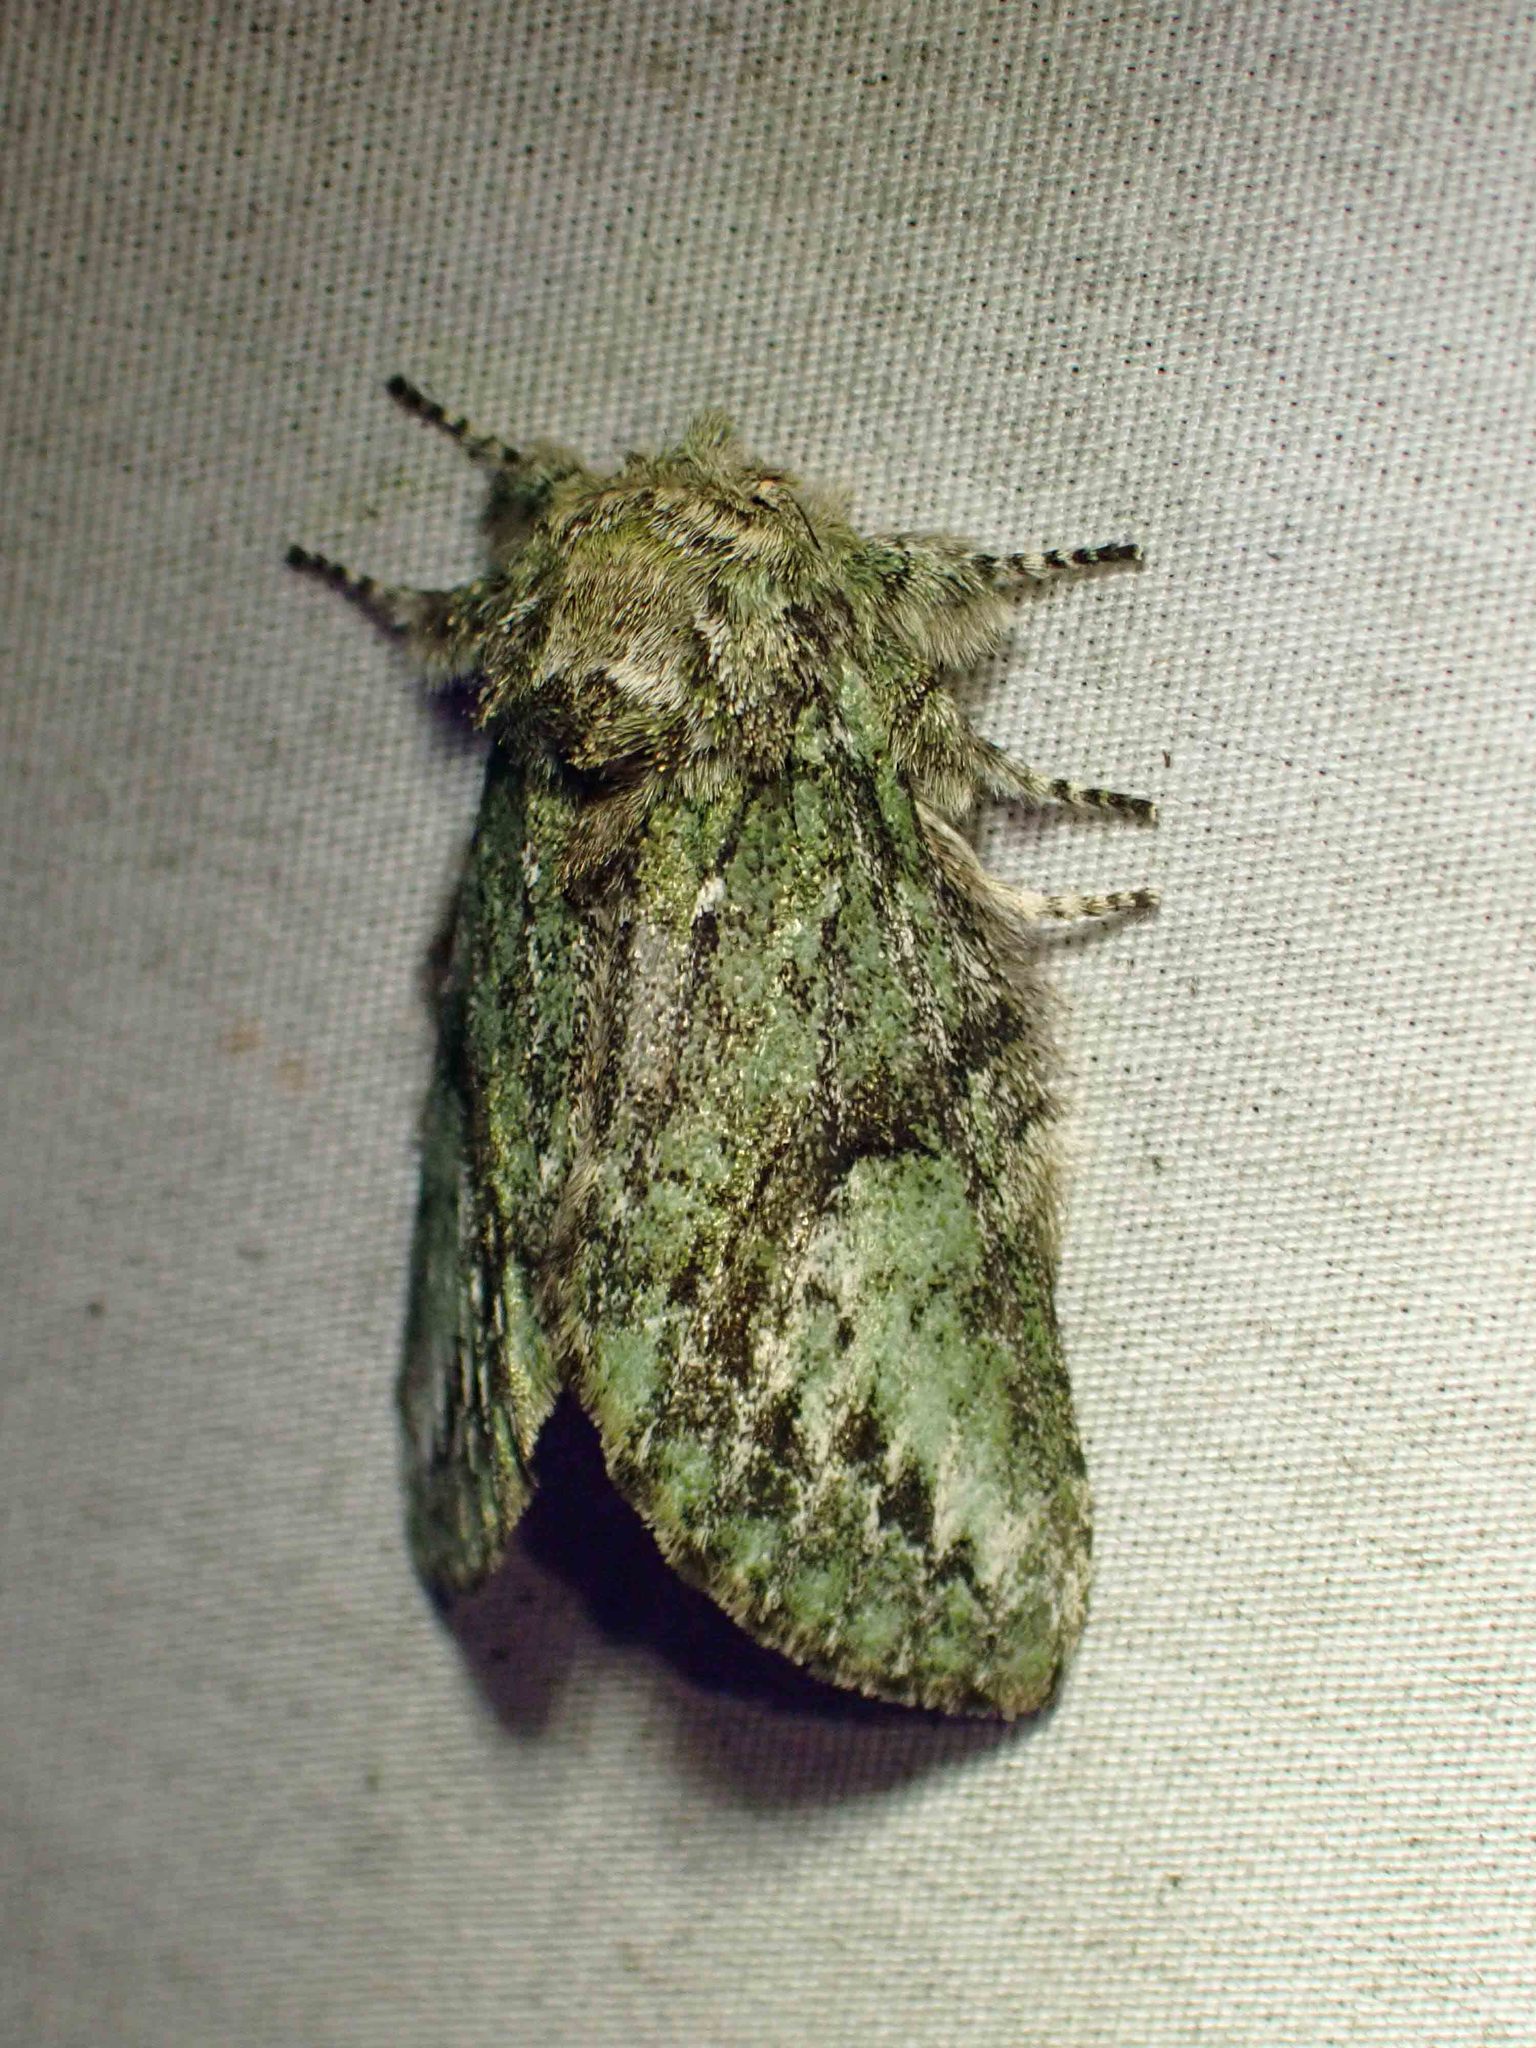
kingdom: Animalia
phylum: Arthropoda
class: Insecta
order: Lepidoptera
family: Notodontidae
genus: Heterocampa
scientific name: Heterocampa
